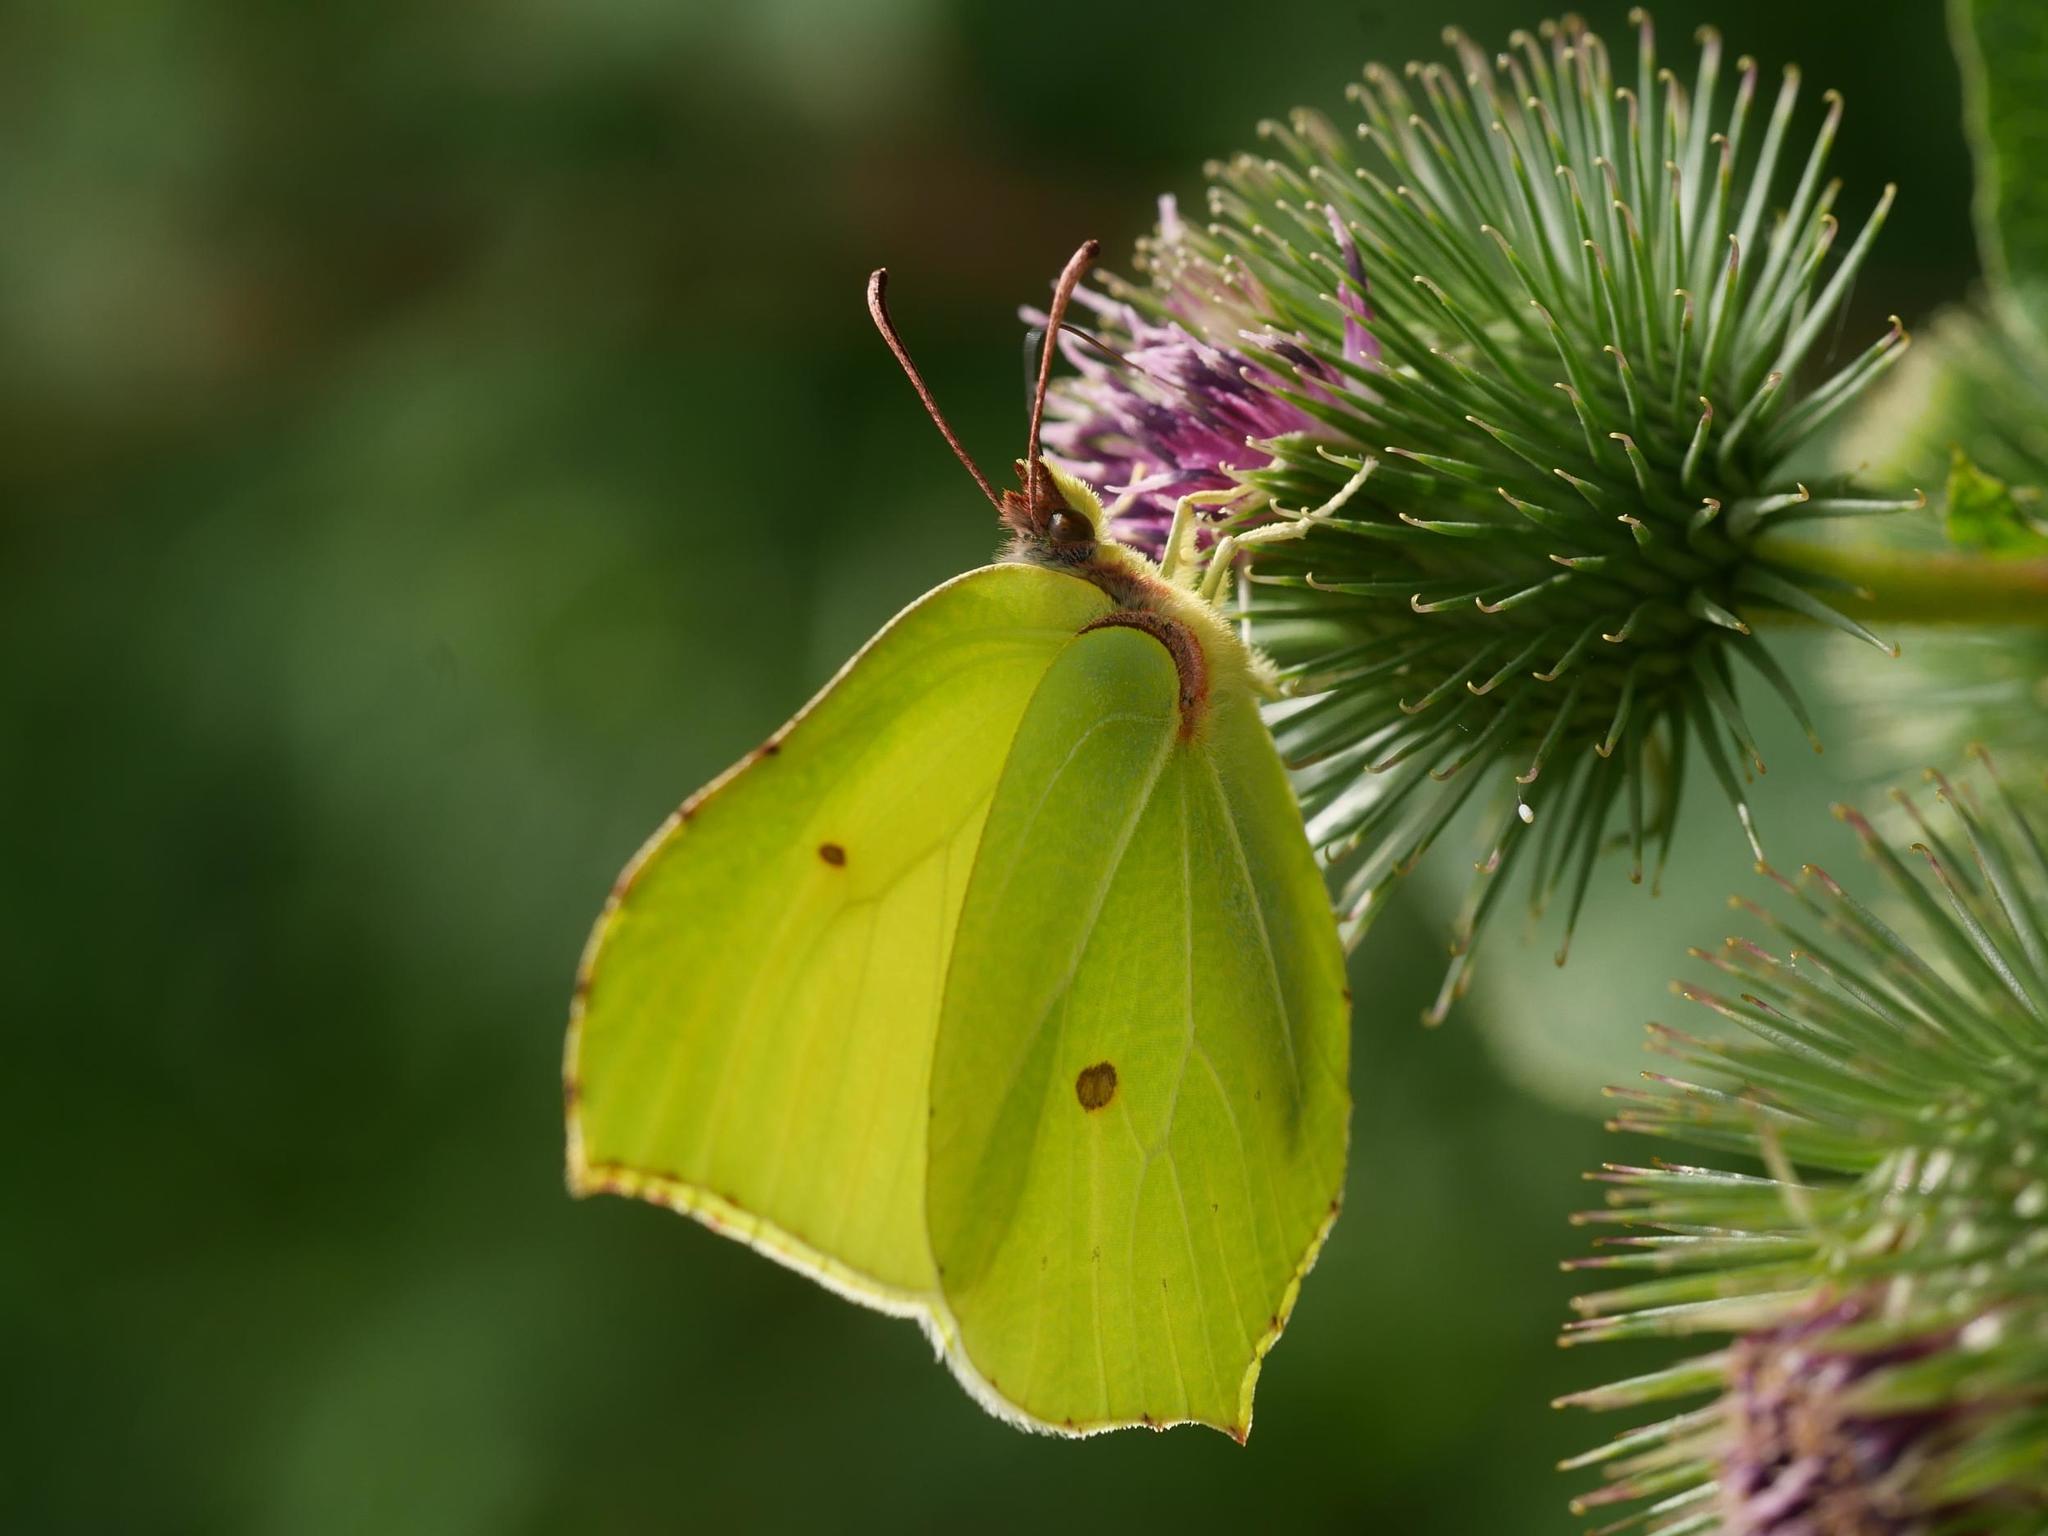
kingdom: Animalia
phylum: Arthropoda
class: Insecta
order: Lepidoptera
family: Pieridae
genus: Gonepteryx
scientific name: Gonepteryx rhamni
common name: Brimstone
